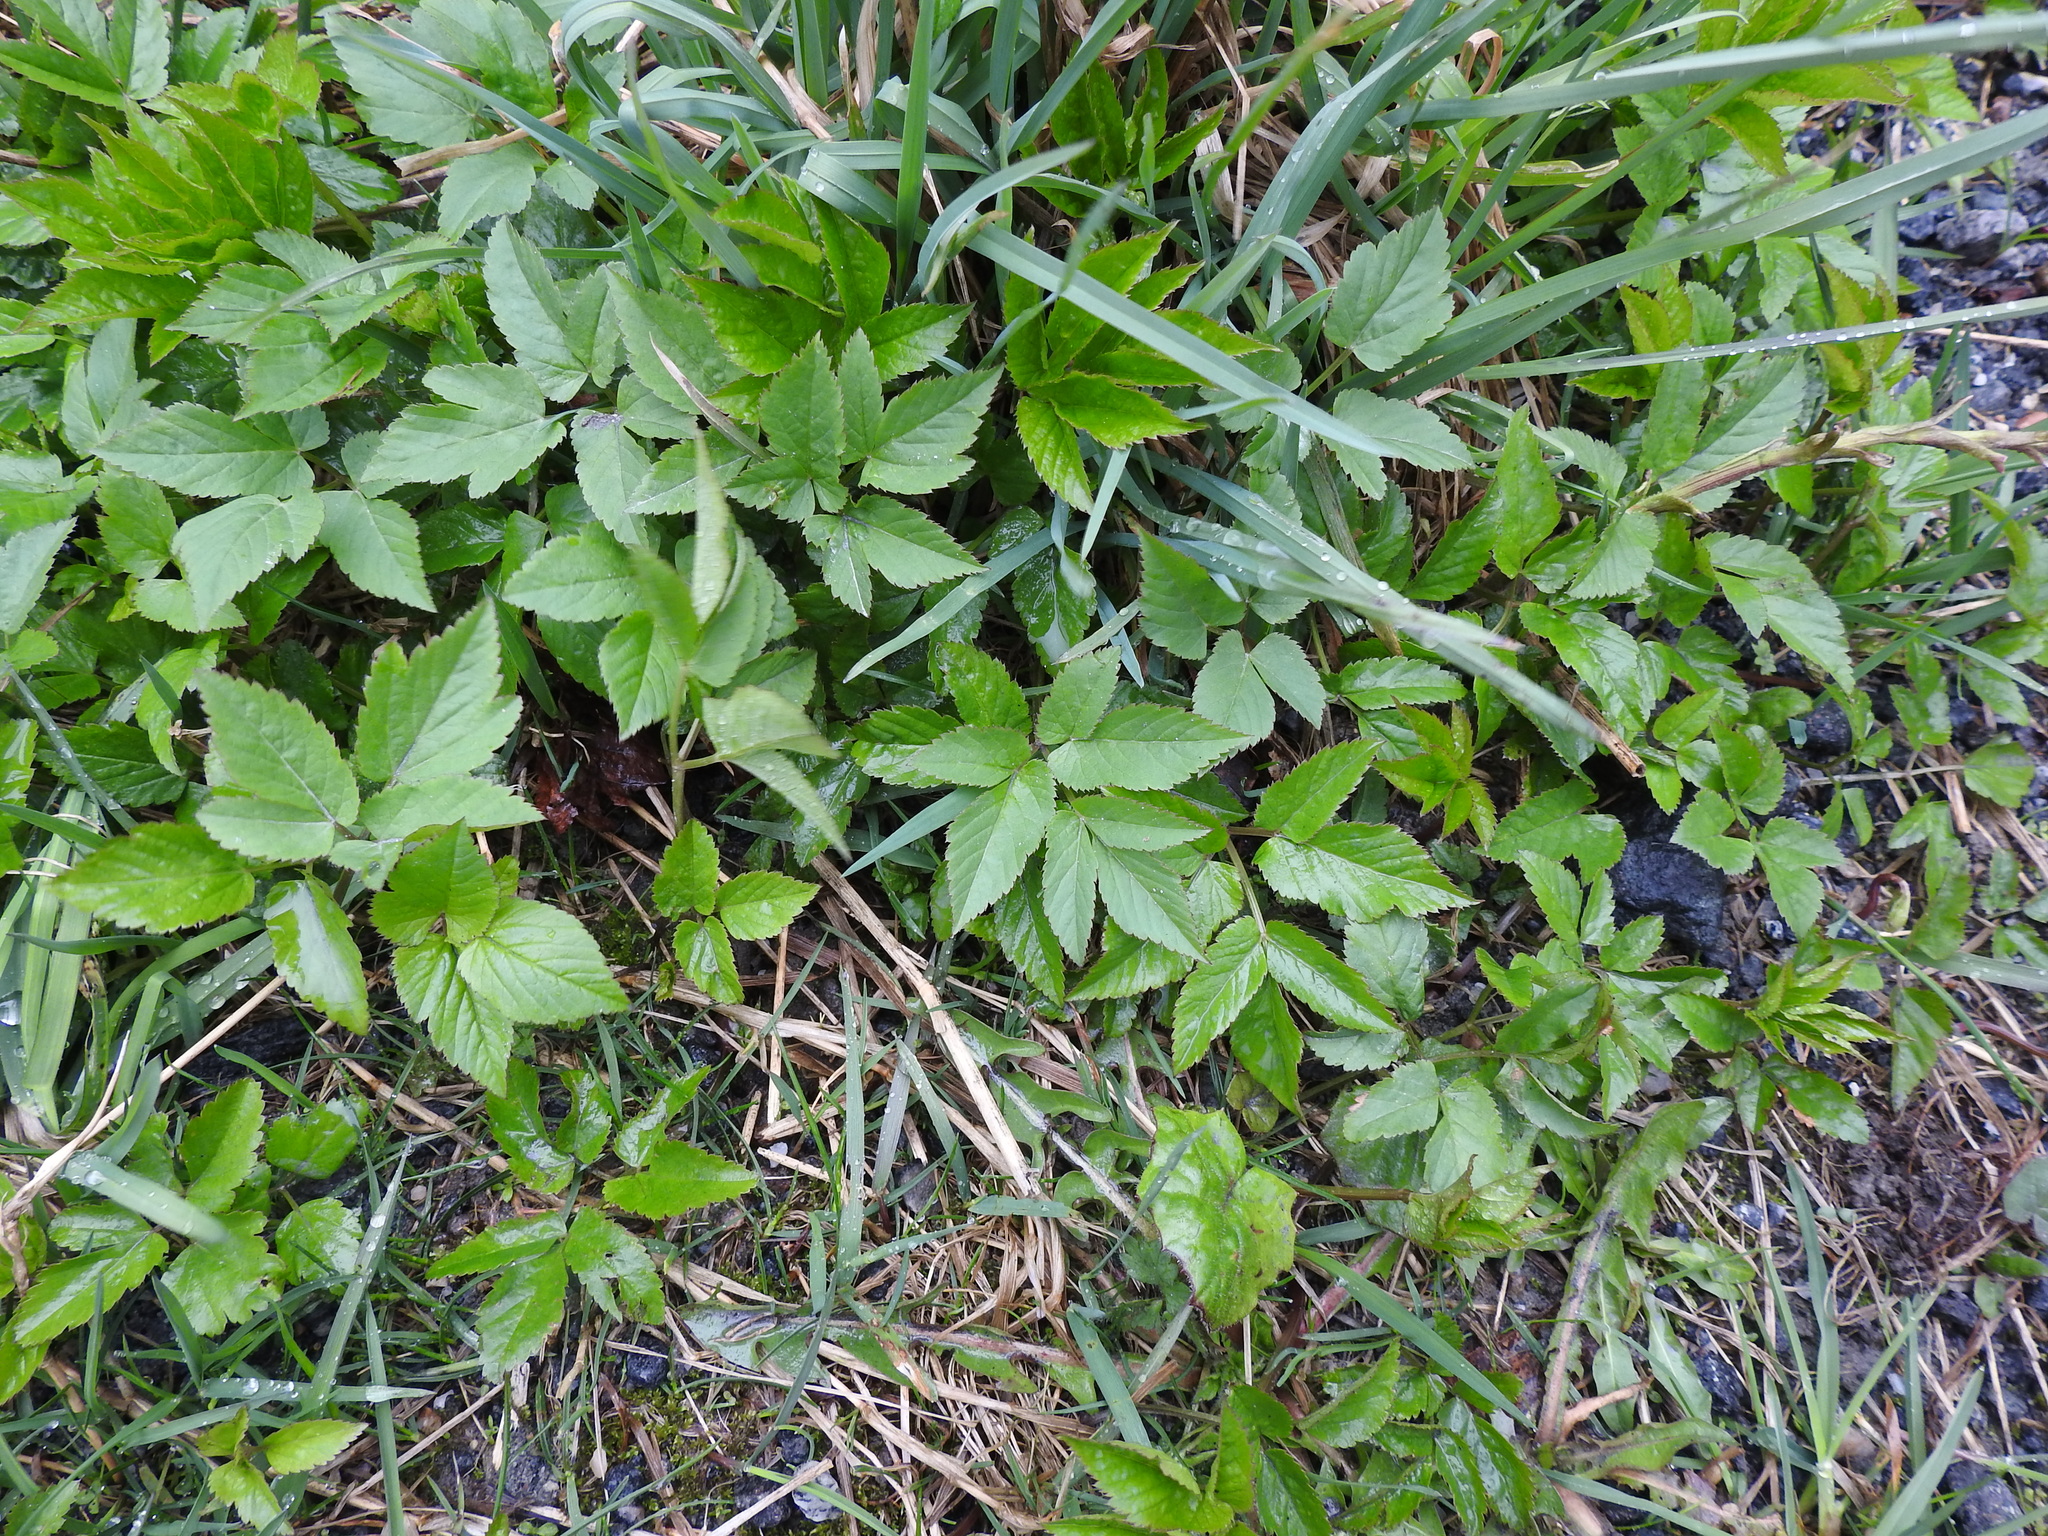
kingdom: Plantae
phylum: Tracheophyta
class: Magnoliopsida
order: Apiales
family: Apiaceae
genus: Aegopodium
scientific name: Aegopodium podagraria
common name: Ground-elder
